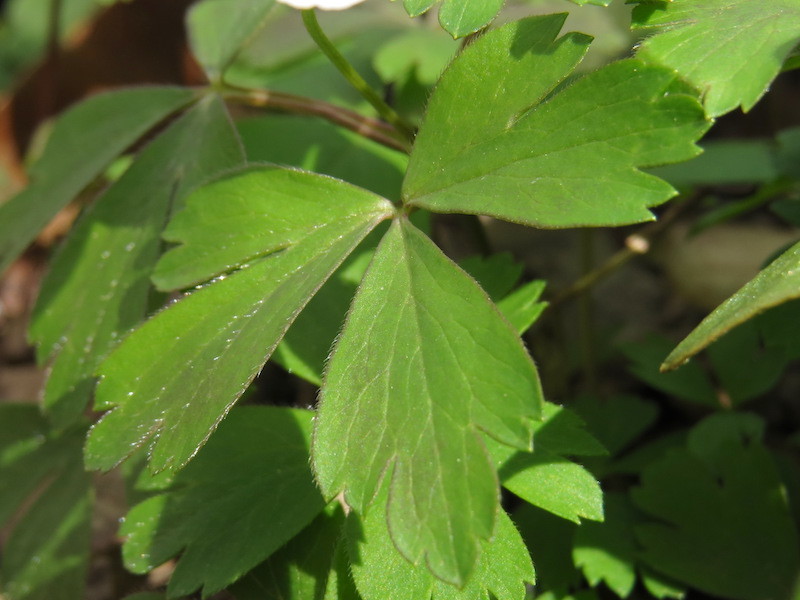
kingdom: Plantae
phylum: Tracheophyta
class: Magnoliopsida
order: Ranunculales
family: Ranunculaceae
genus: Anemone
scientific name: Anemone quinquefolia
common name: Wood anemone
